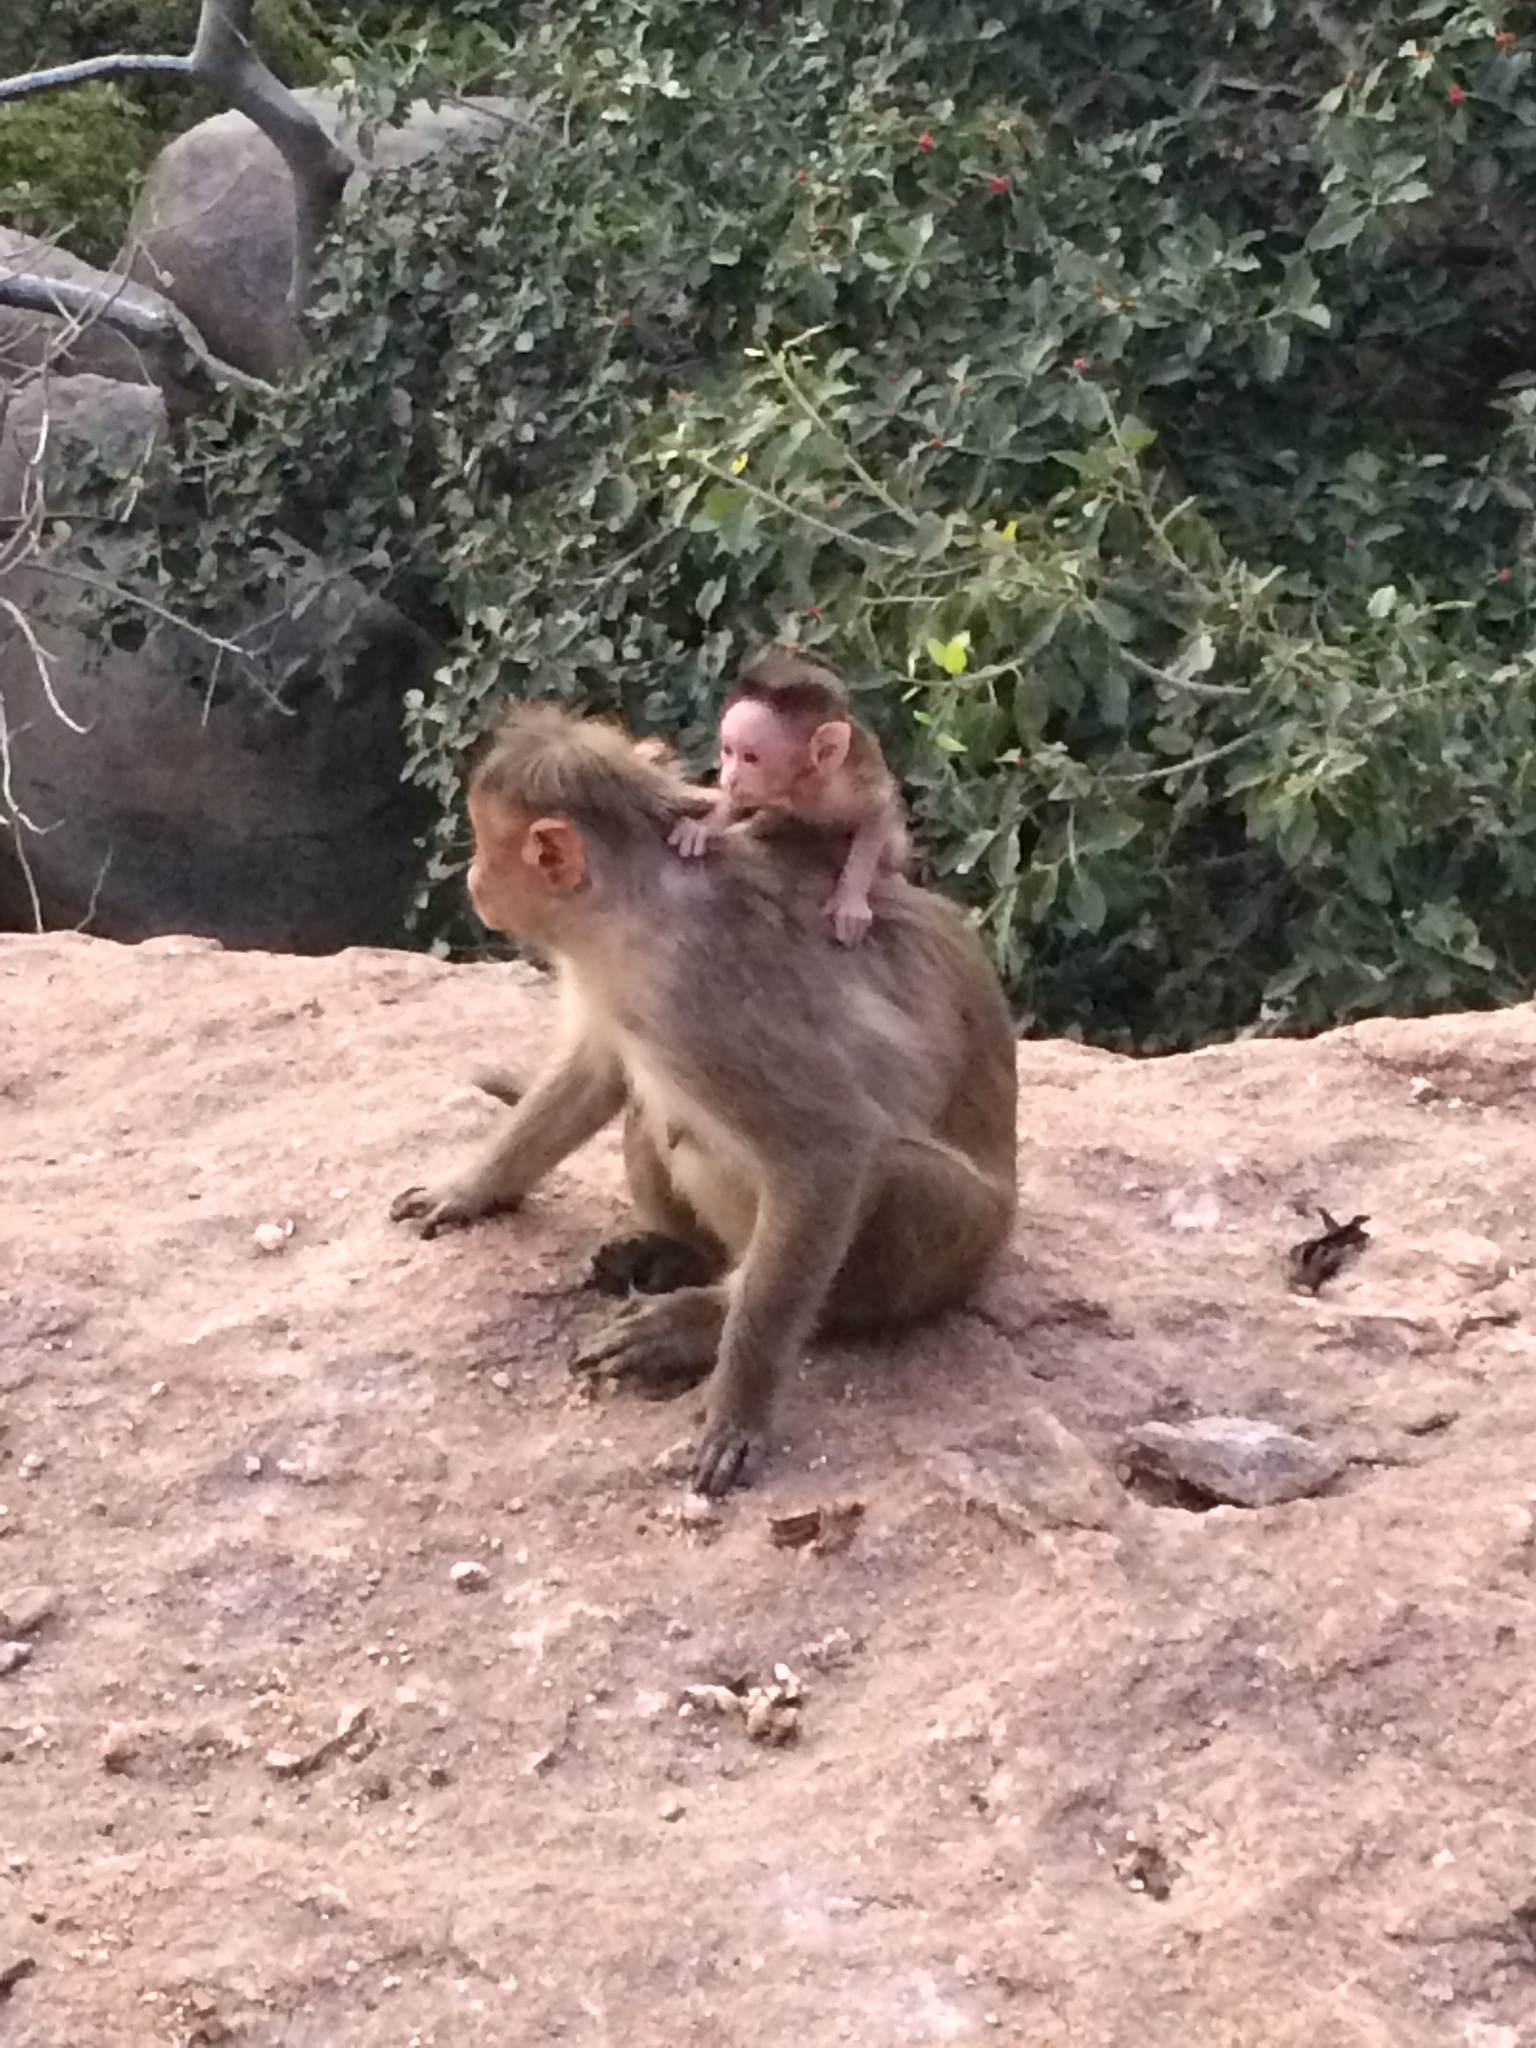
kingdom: Animalia
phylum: Chordata
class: Mammalia
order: Primates
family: Cercopithecidae
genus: Macaca
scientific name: Macaca radiata
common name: Bonnet macaque
